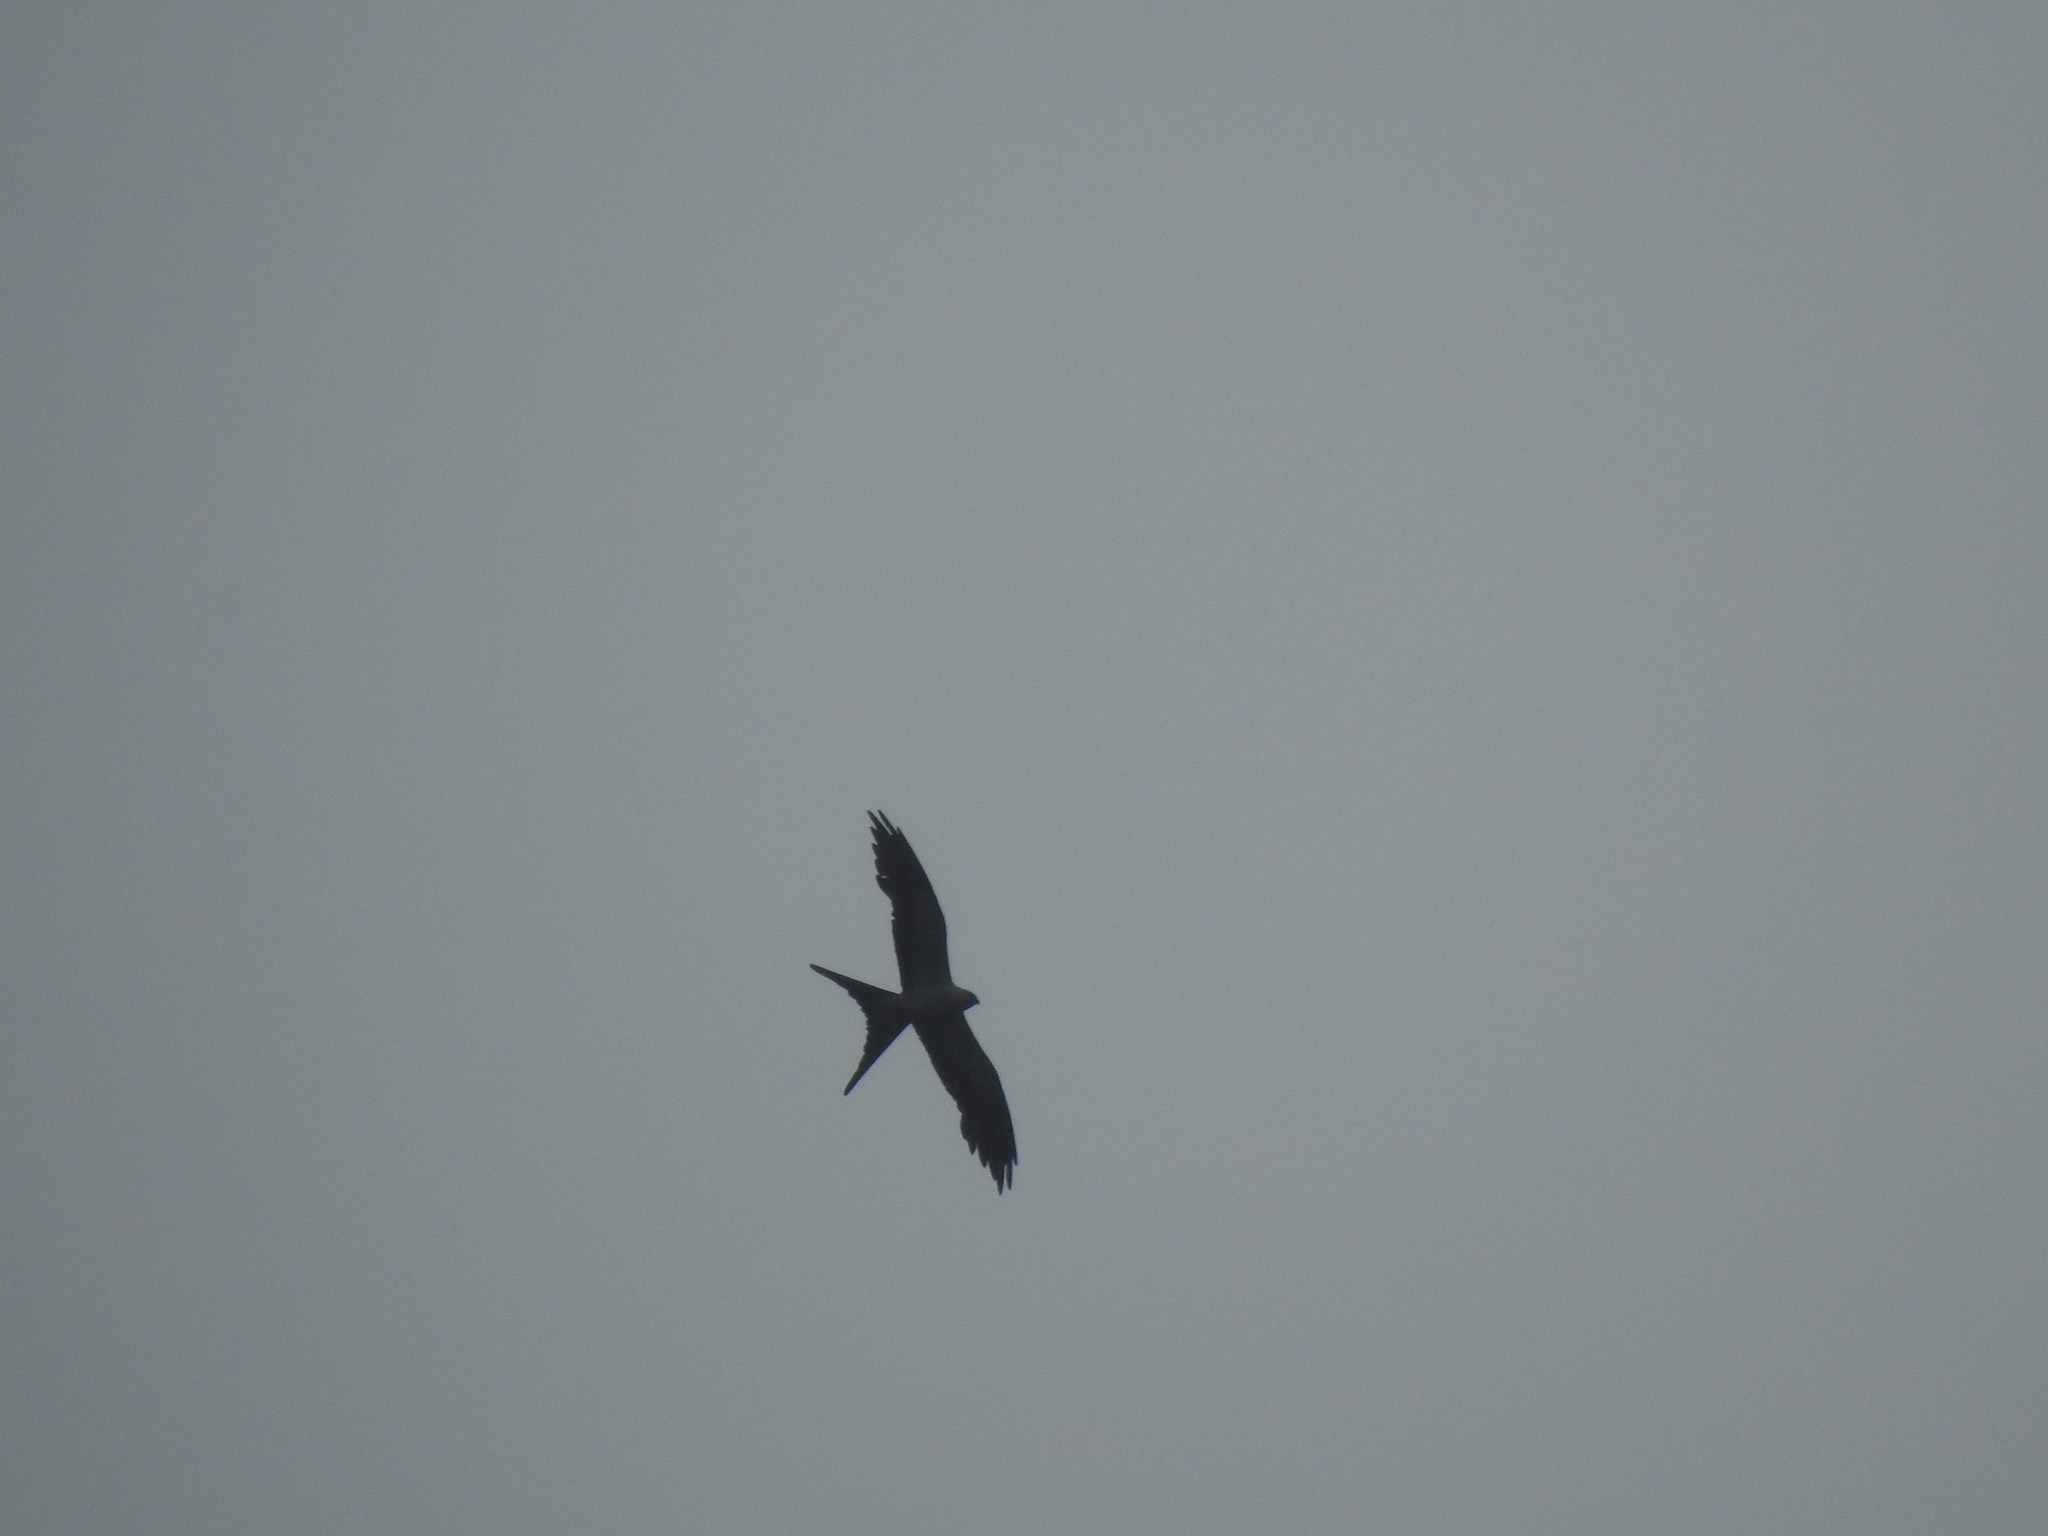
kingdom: Animalia
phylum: Chordata
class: Aves
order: Accipitriformes
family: Accipitridae
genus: Elanoides
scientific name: Elanoides forficatus
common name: Swallow-tailed kite
